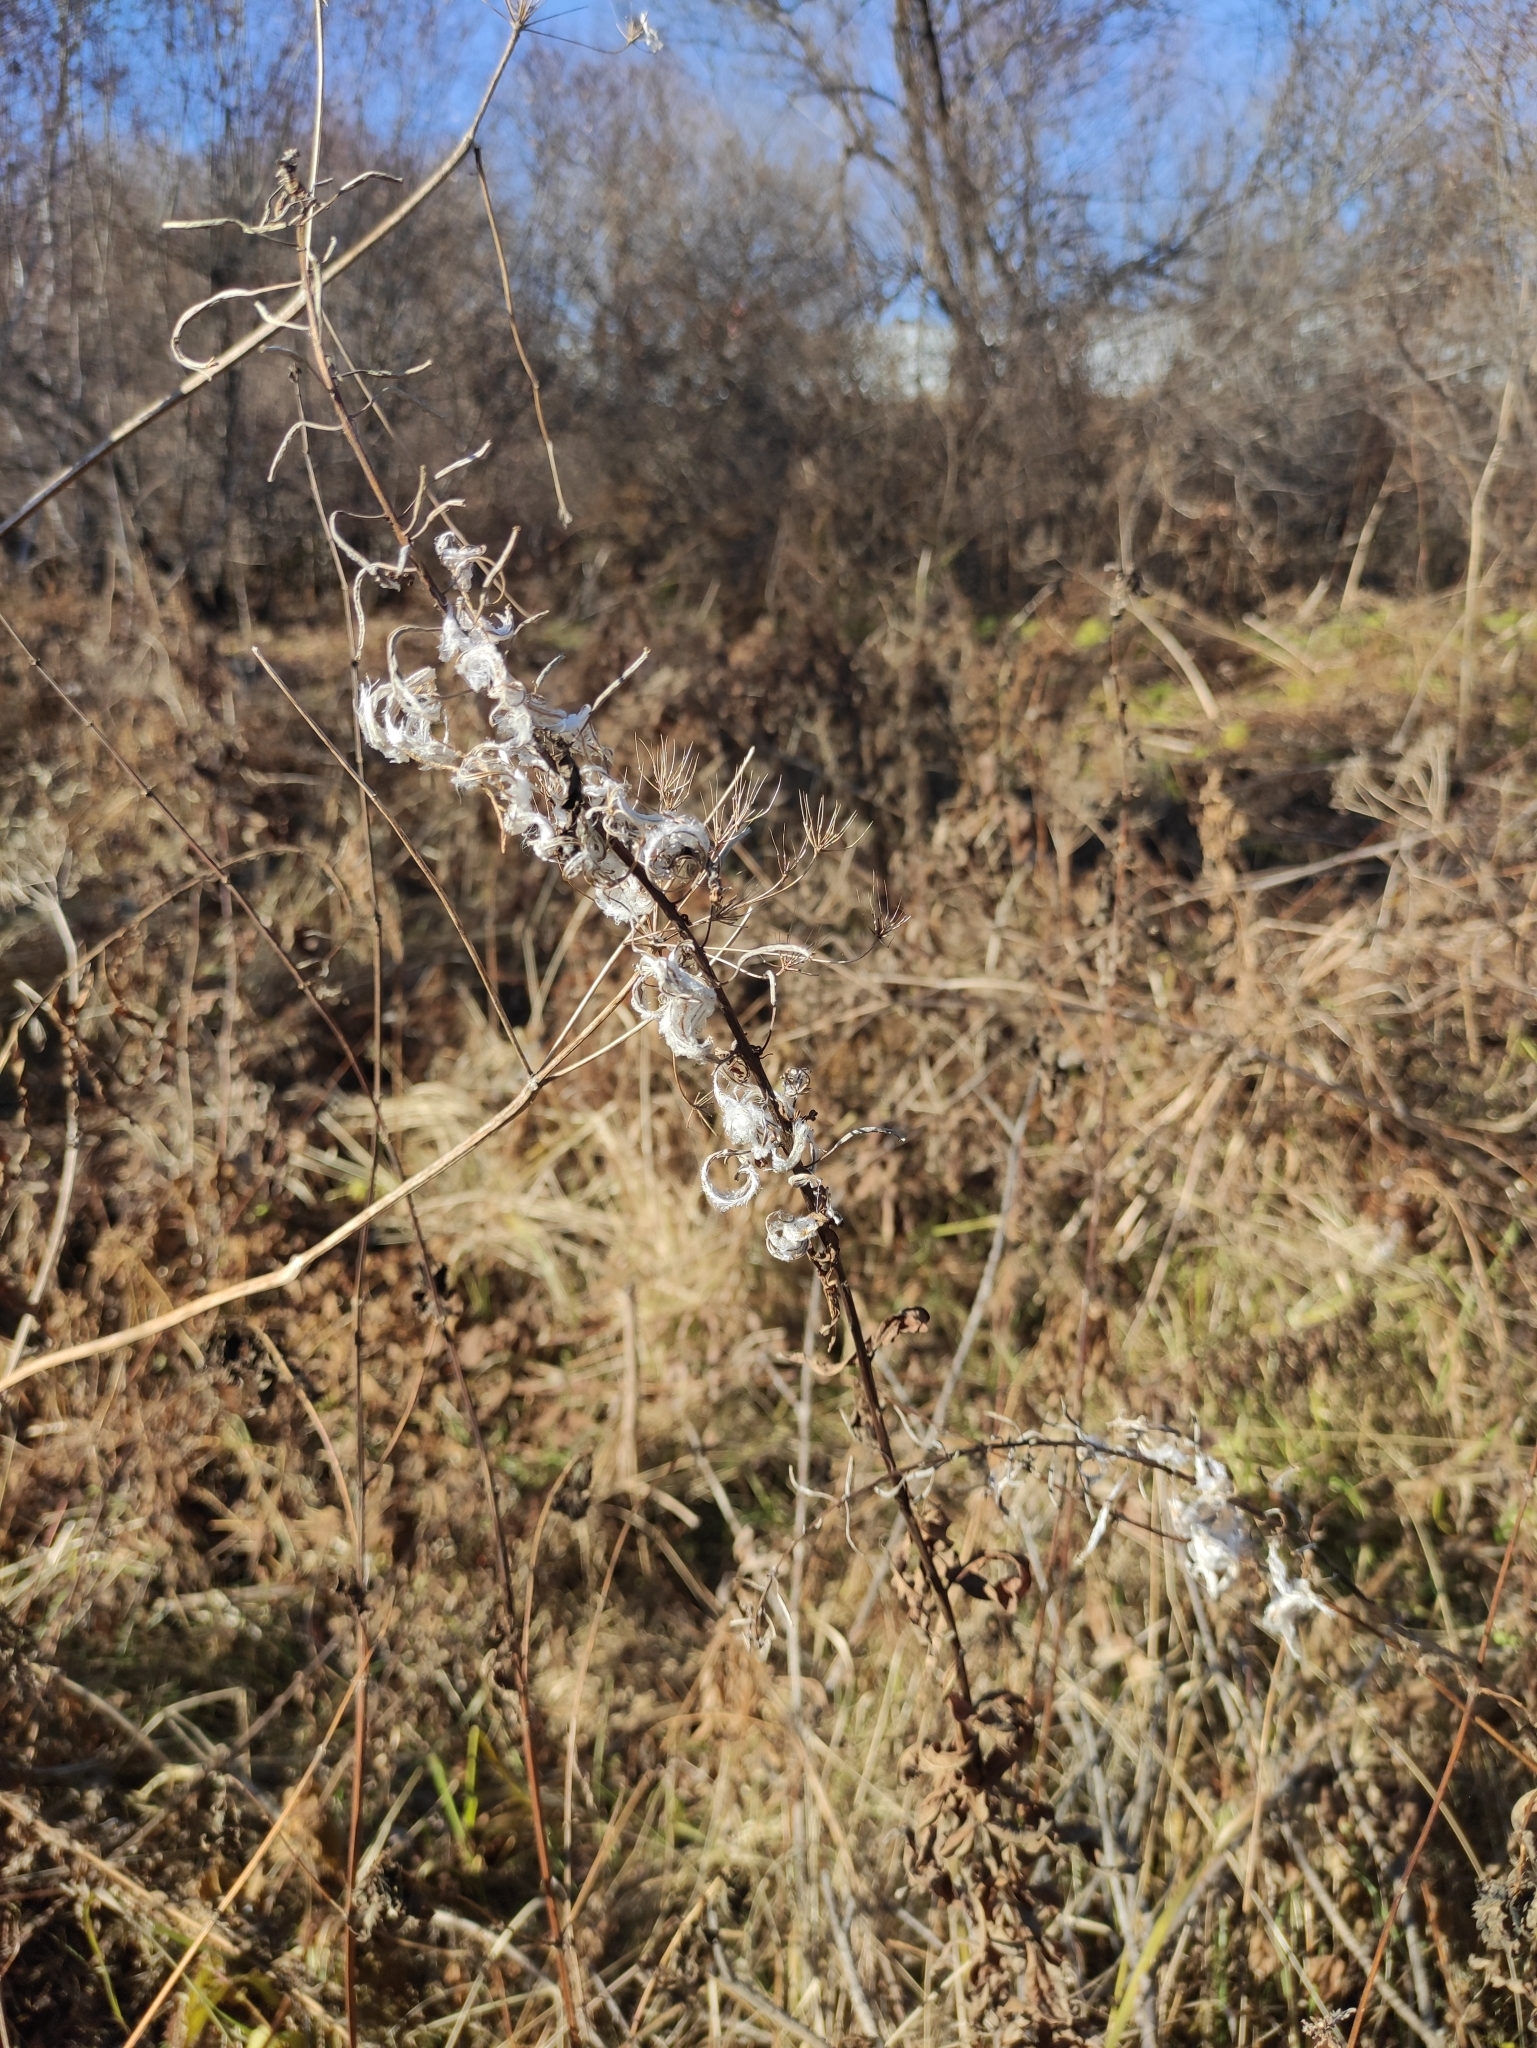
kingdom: Plantae
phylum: Tracheophyta
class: Magnoliopsida
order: Myrtales
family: Onagraceae
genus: Chamaenerion
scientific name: Chamaenerion angustifolium
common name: Fireweed
